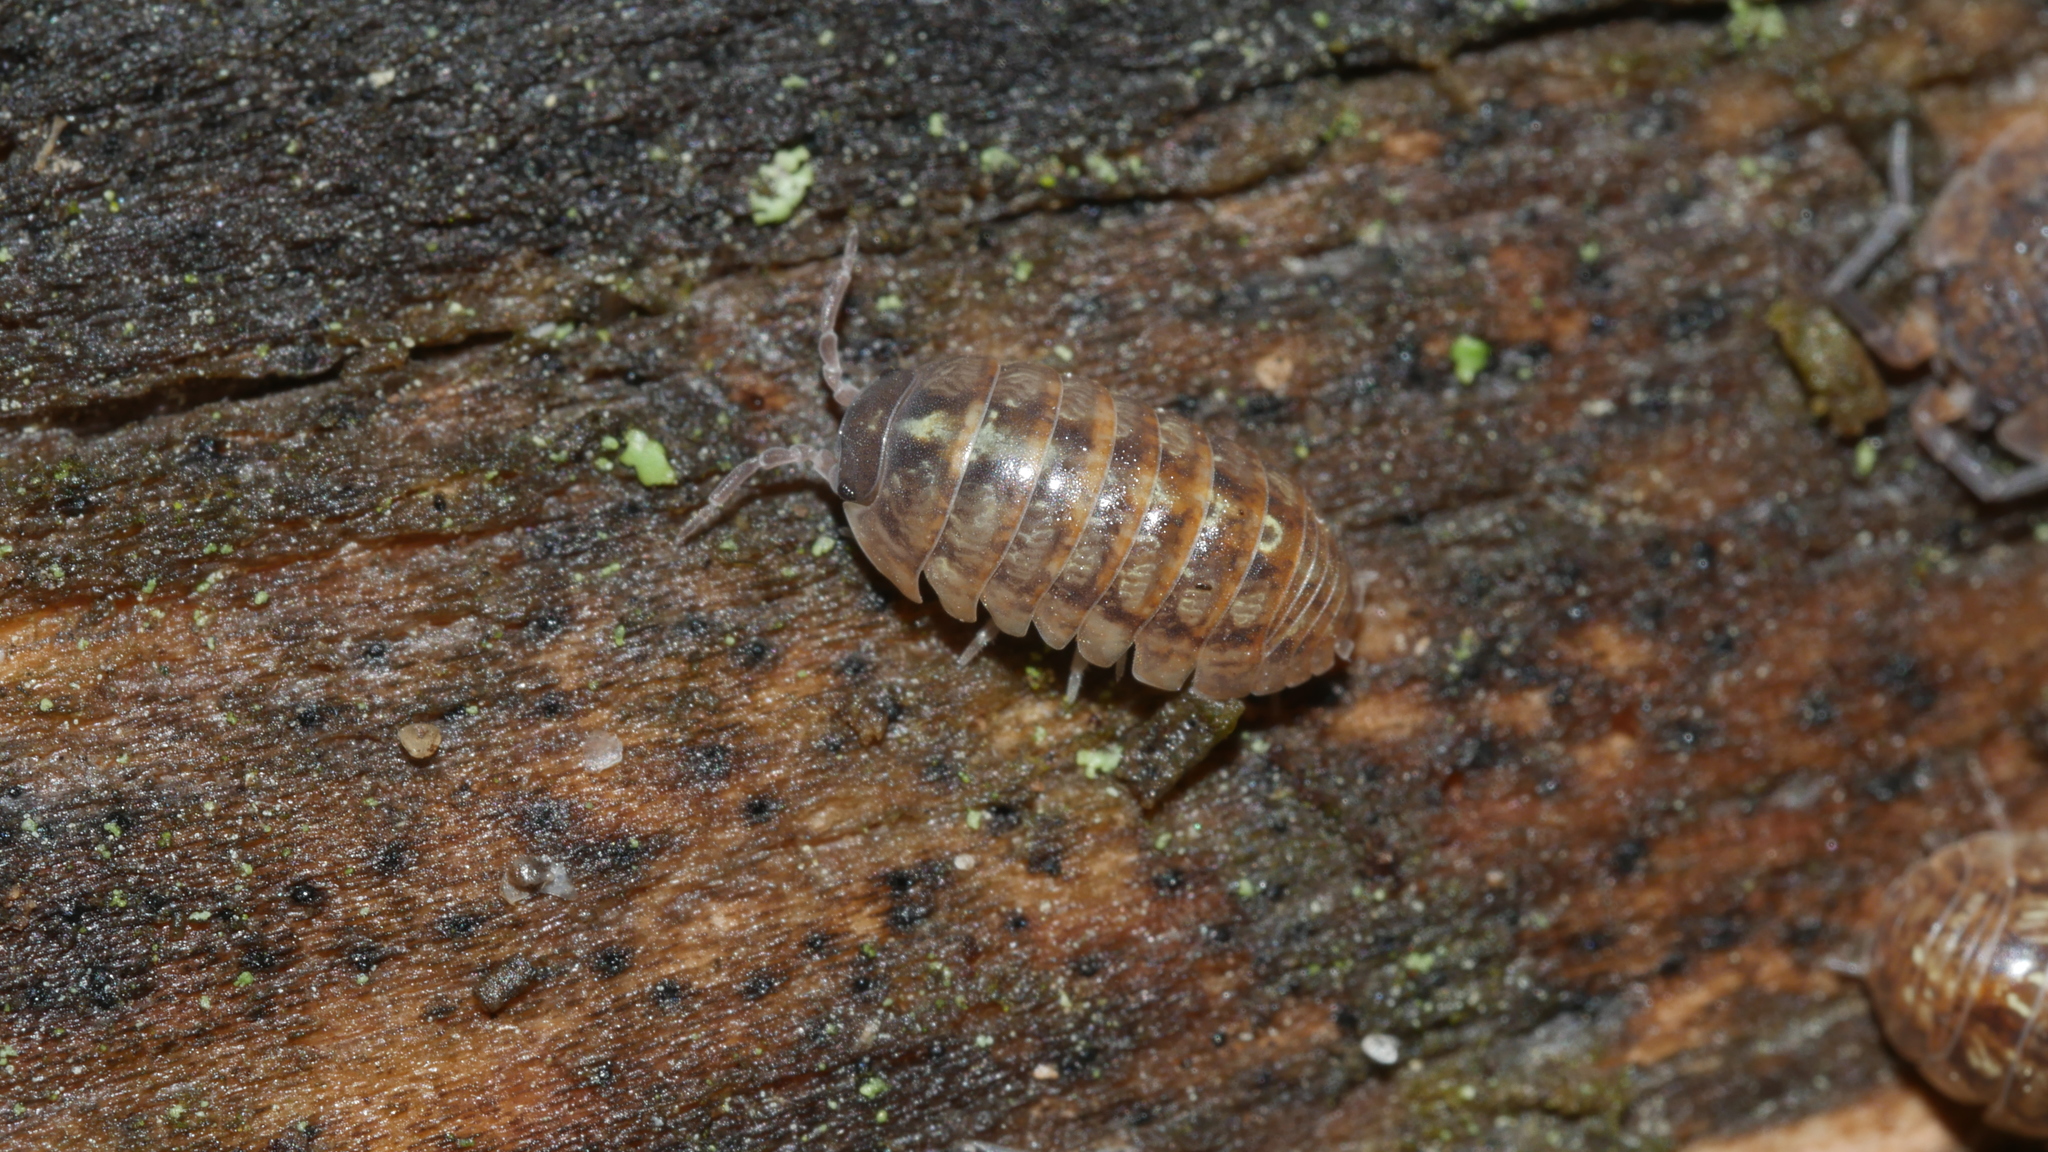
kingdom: Animalia
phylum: Arthropoda
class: Malacostraca
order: Isopoda
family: Armadillidiidae
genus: Armadillidium
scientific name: Armadillidium vulgare
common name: Common pill woodlouse
